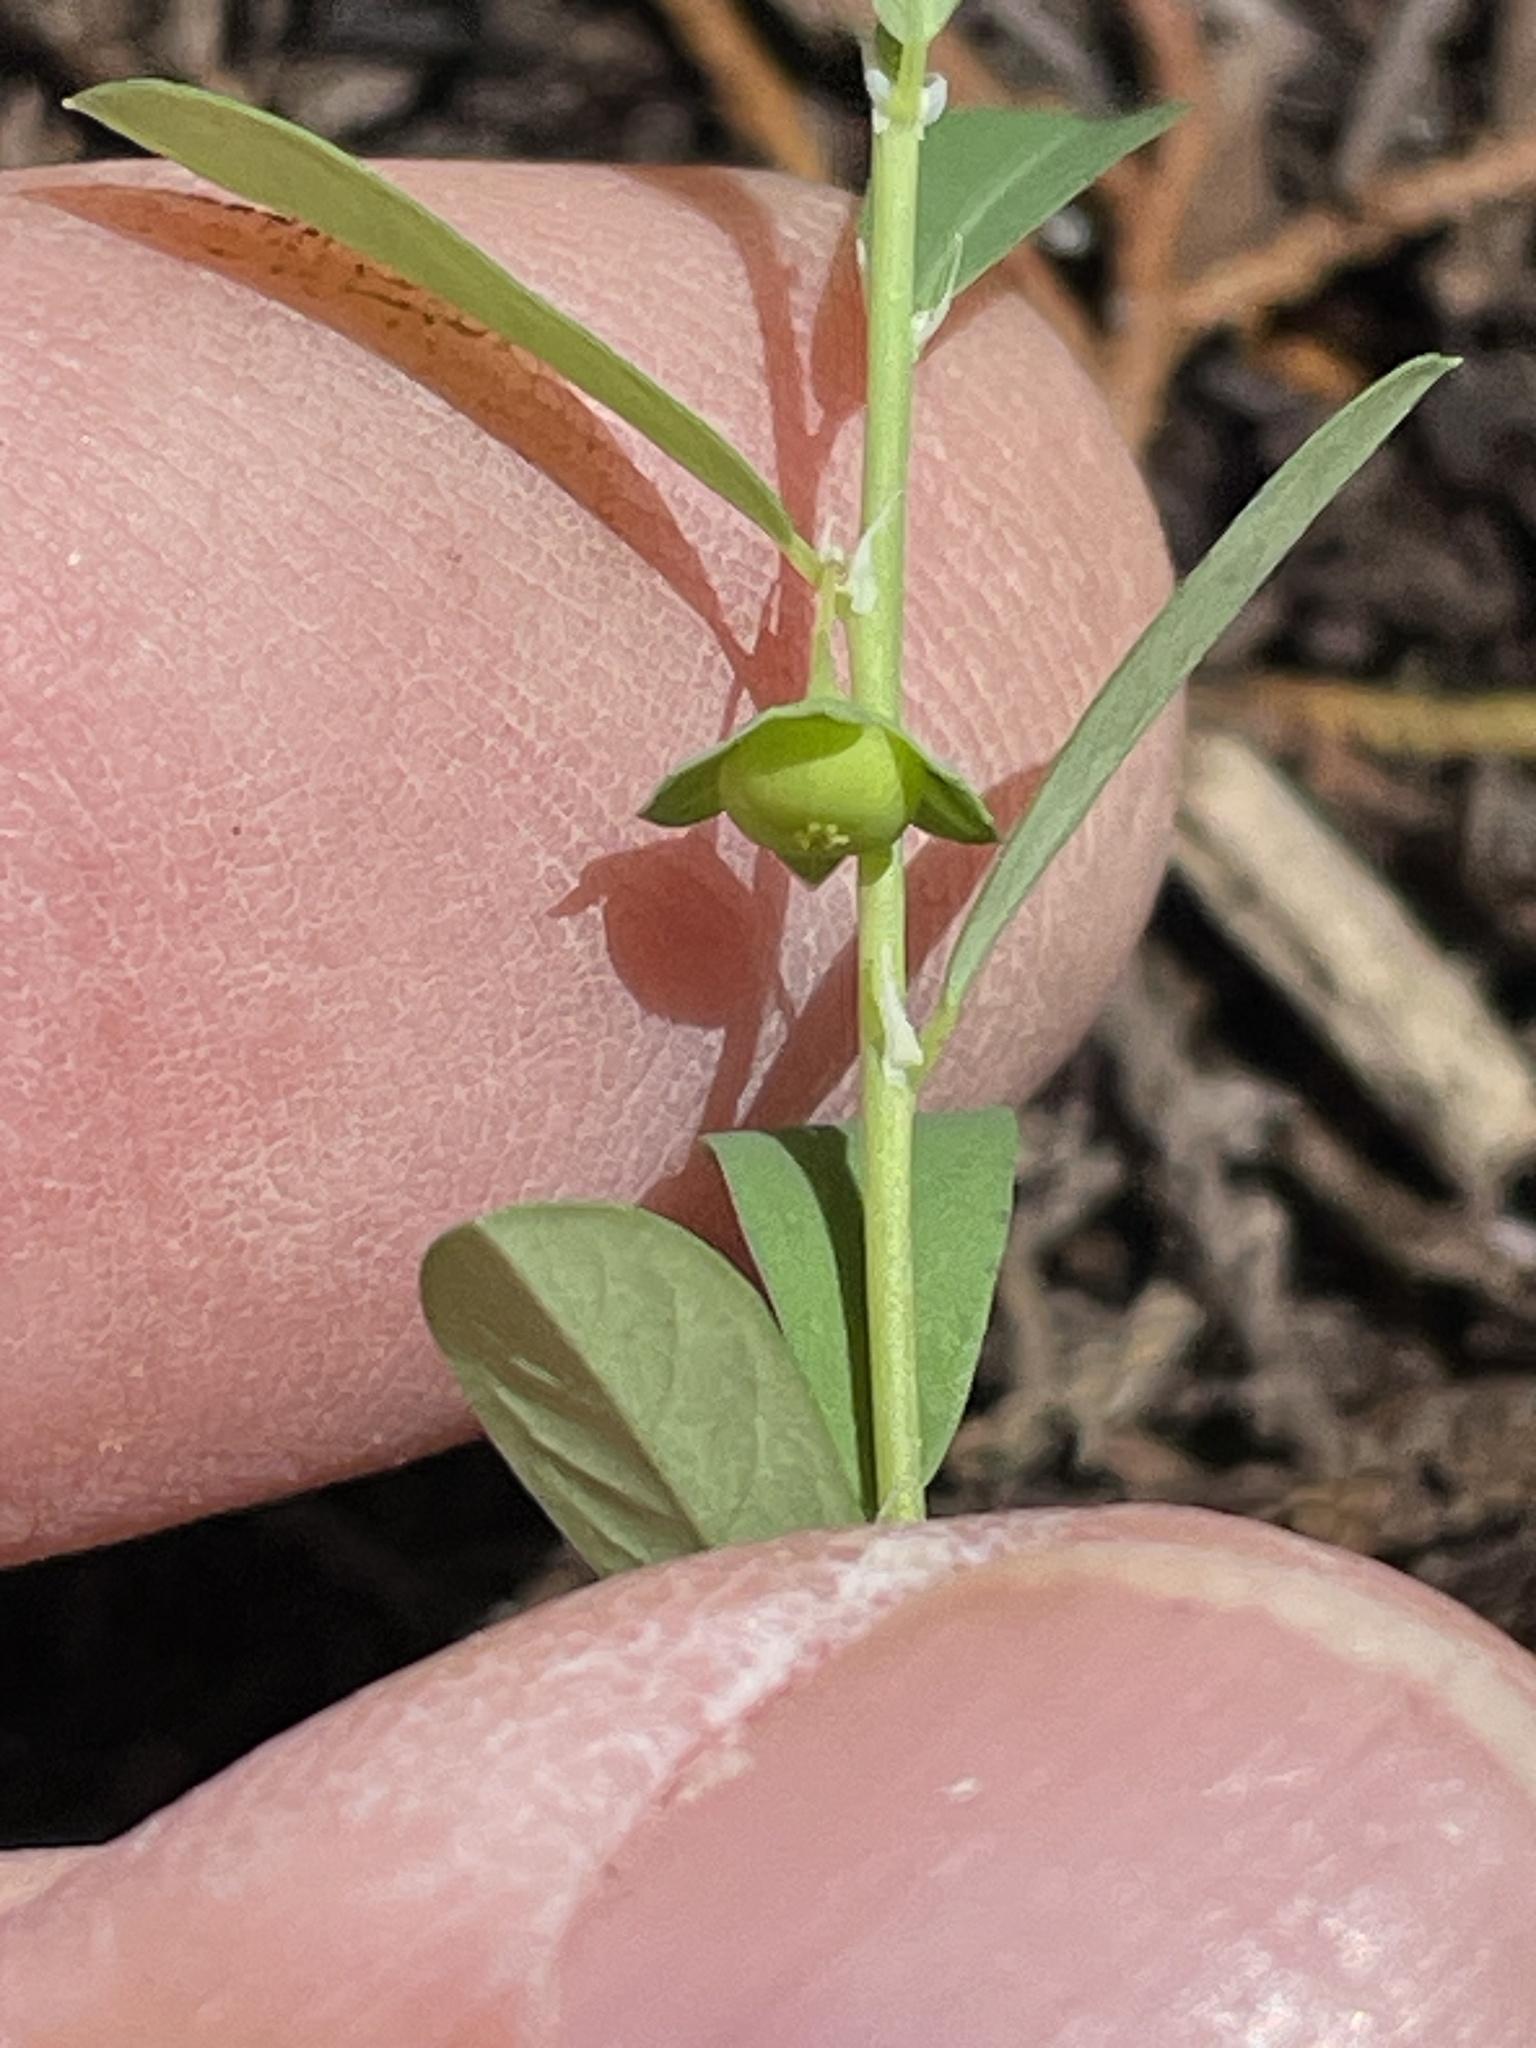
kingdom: Plantae
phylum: Tracheophyta
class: Magnoliopsida
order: Malpighiales
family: Phyllanthaceae
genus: Phyllanthus
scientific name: Phyllanthus polygonoides
